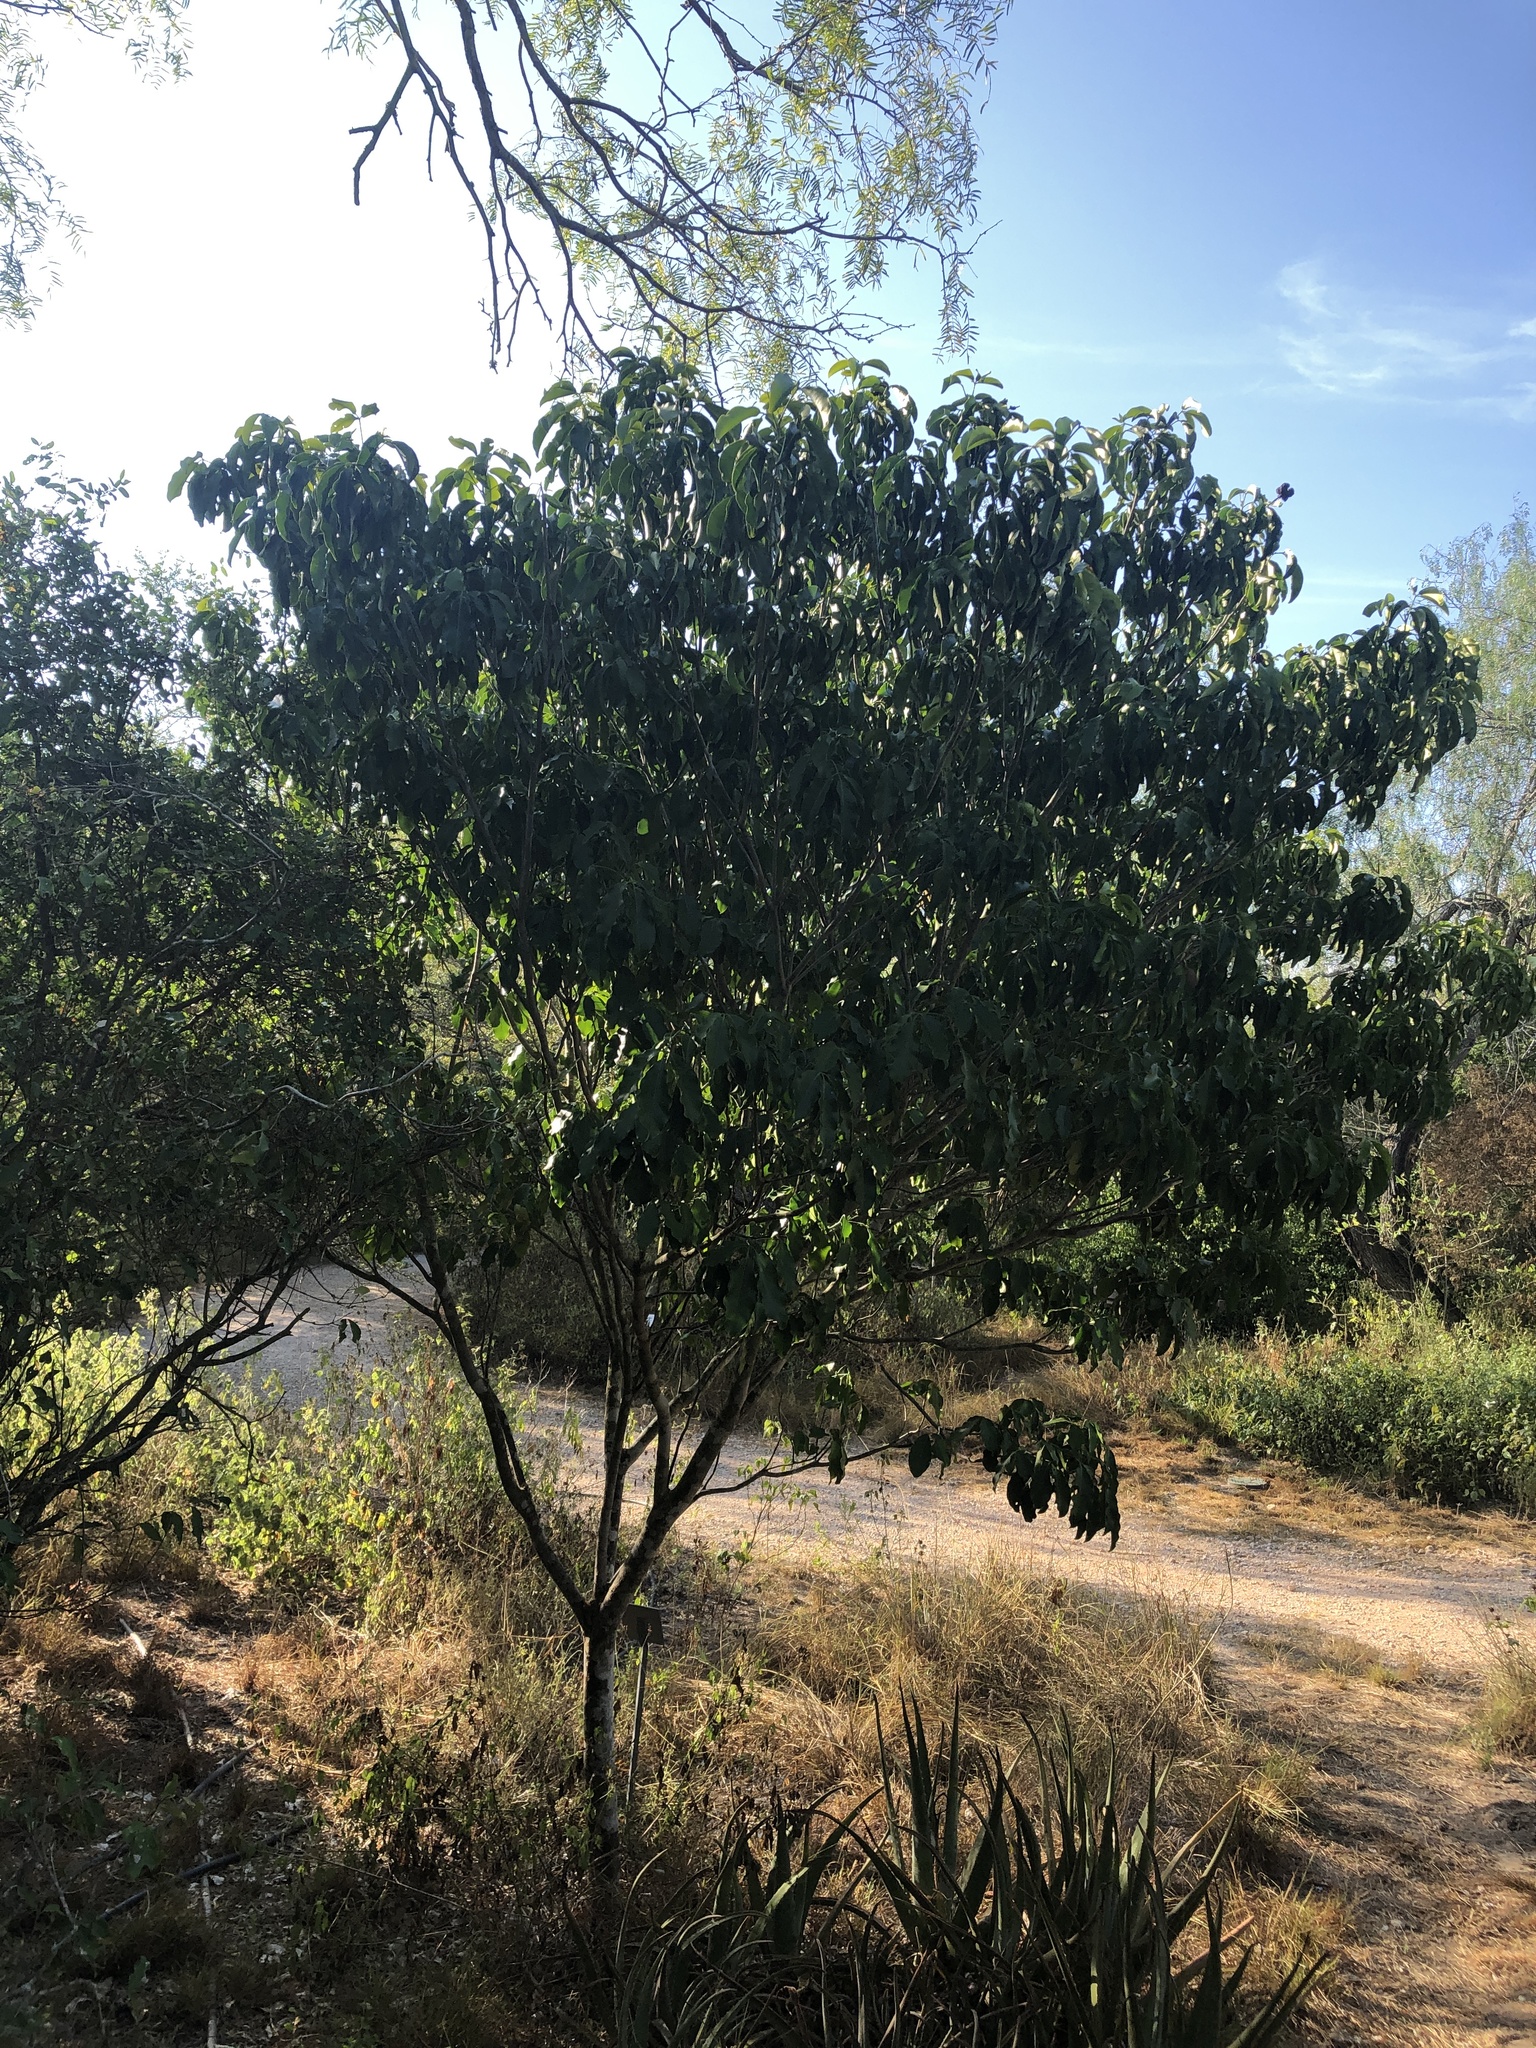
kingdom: Plantae
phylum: Tracheophyta
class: Magnoliopsida
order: Sapindales
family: Rutaceae
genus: Esenbeckia
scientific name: Esenbeckia berlandieri
